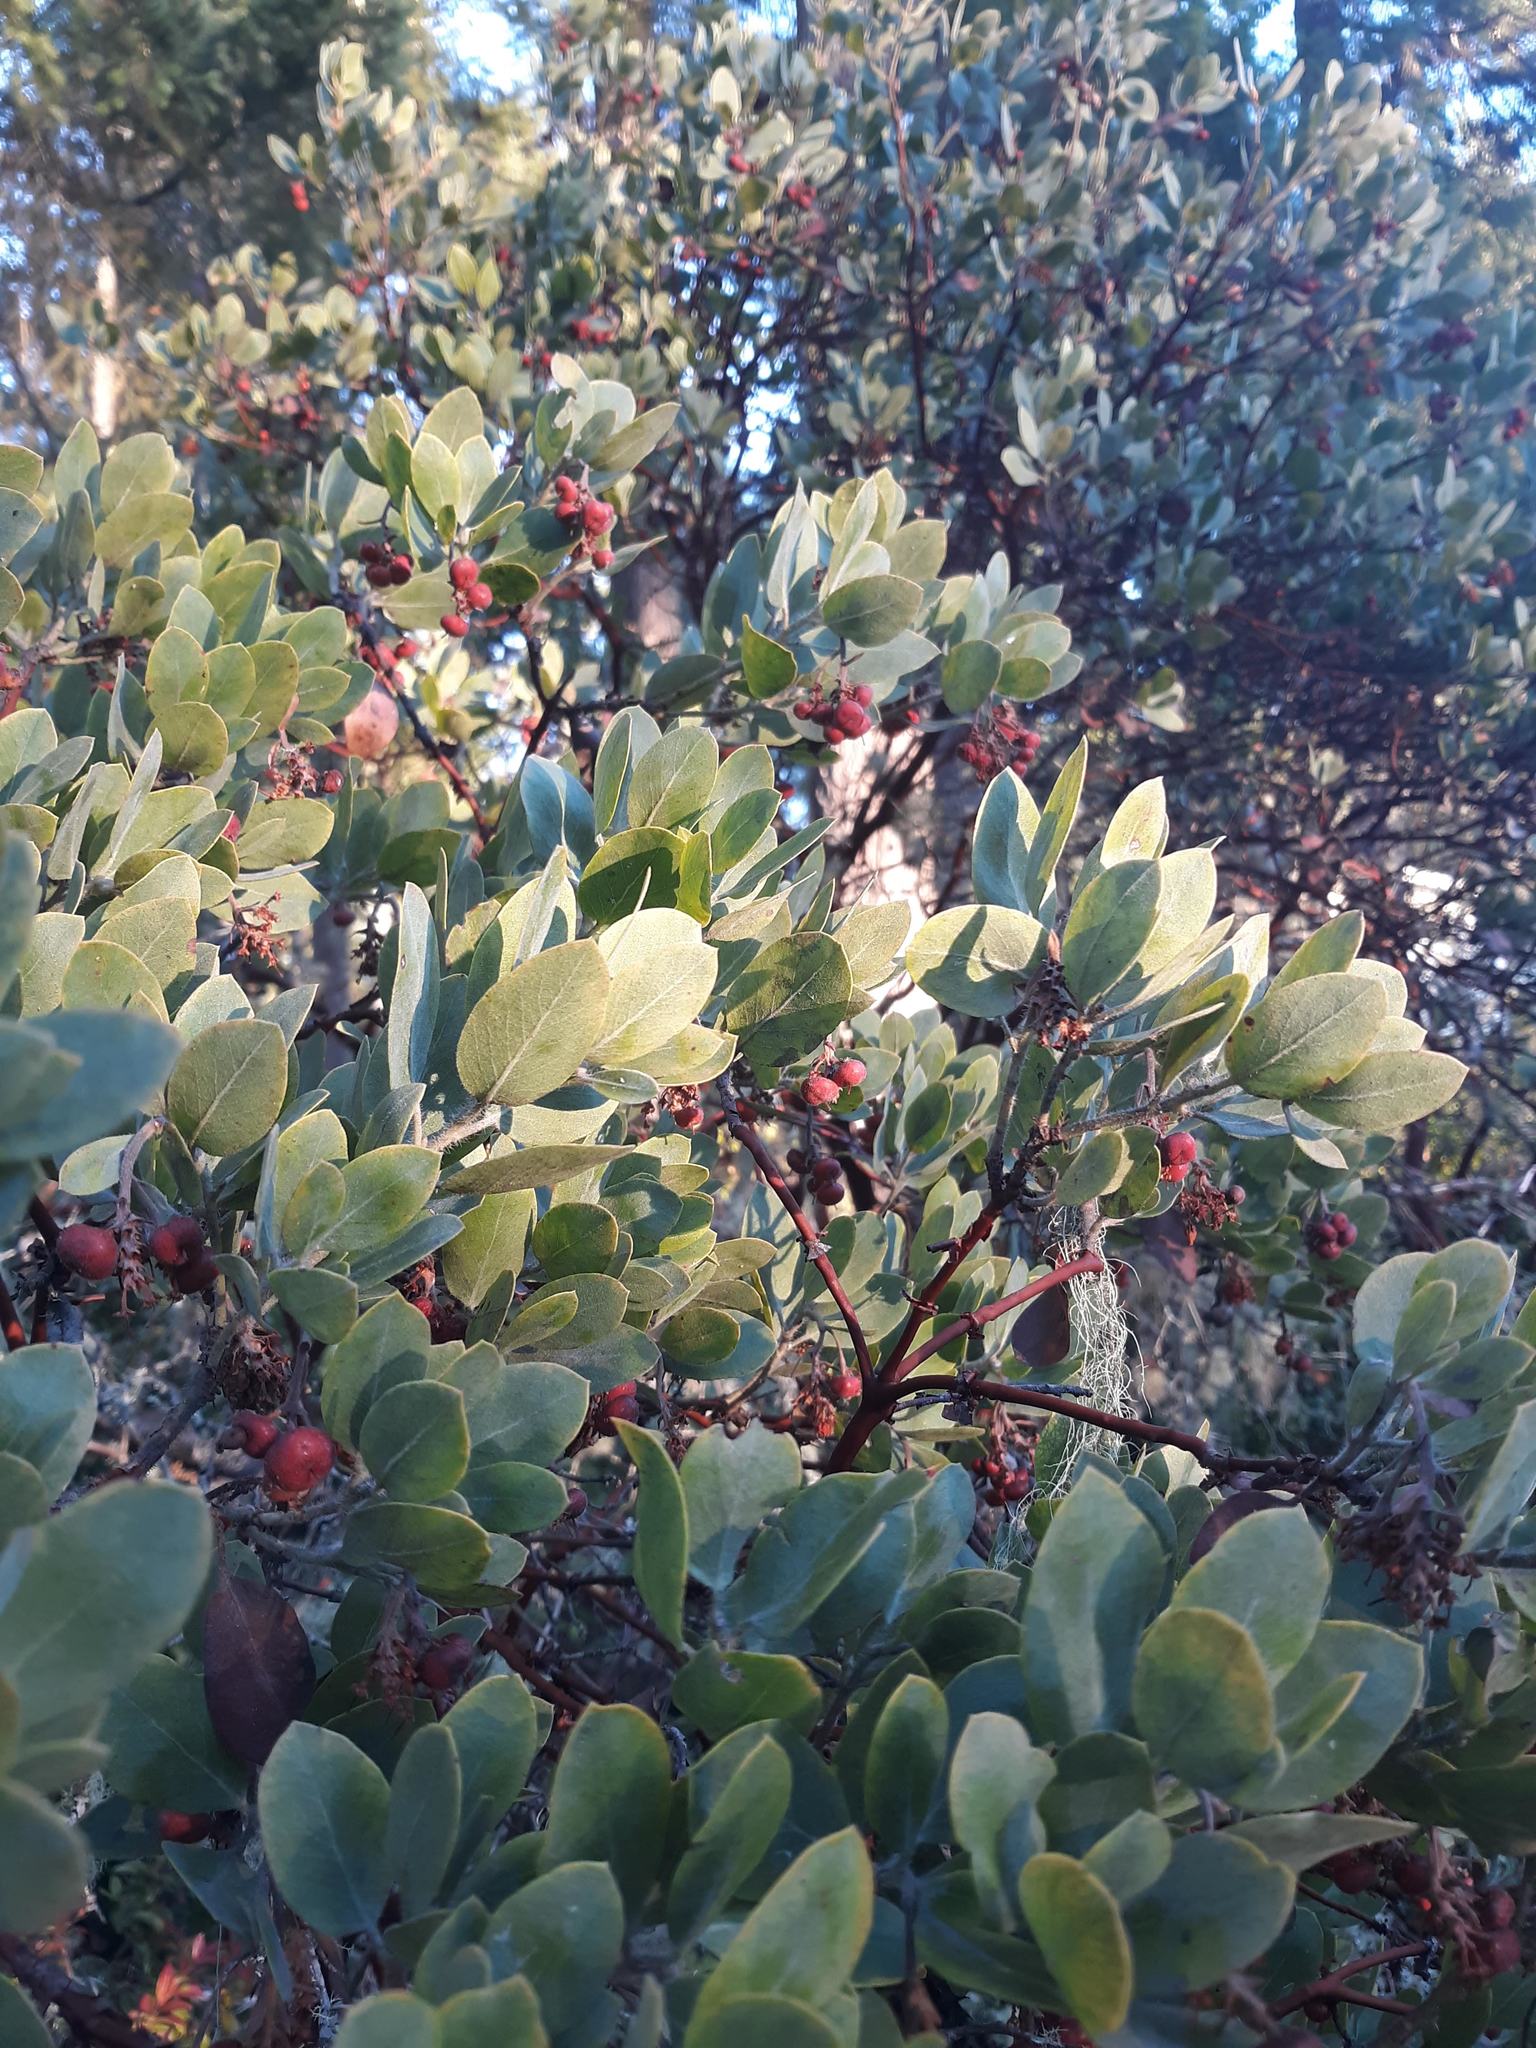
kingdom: Plantae
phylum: Tracheophyta
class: Magnoliopsida
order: Ericales
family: Ericaceae
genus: Arctostaphylos
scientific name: Arctostaphylos columbiana
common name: Bristly bearberry
